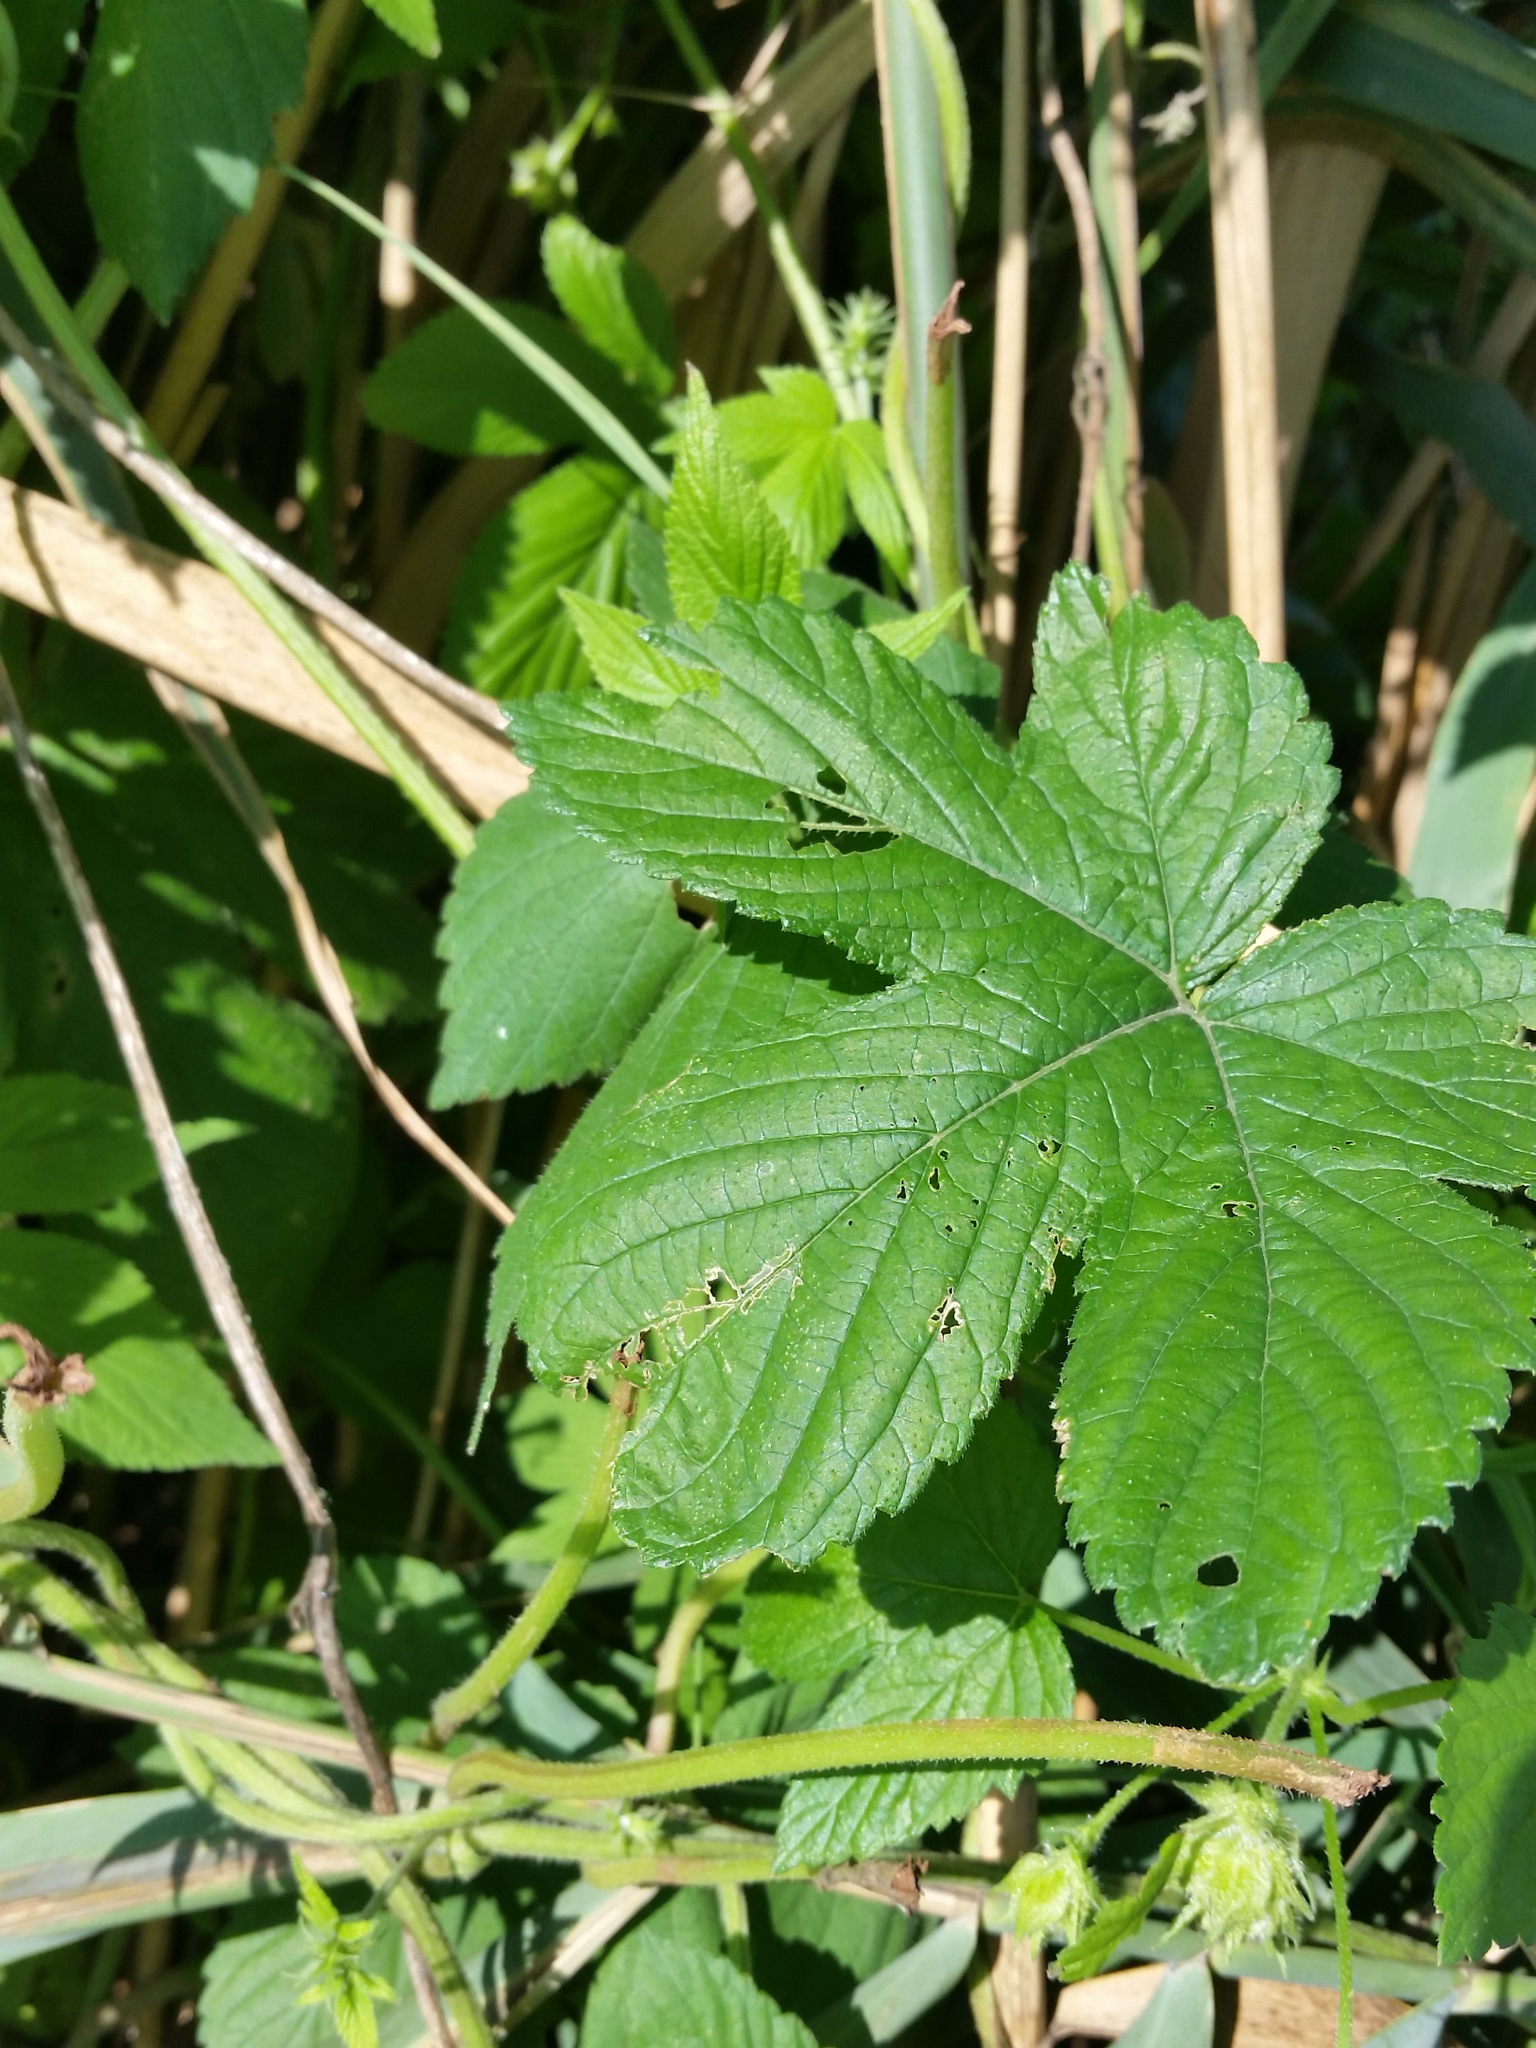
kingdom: Plantae
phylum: Tracheophyta
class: Magnoliopsida
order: Rosales
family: Cannabaceae
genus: Humulus
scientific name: Humulus scandens
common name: Japanese hop
